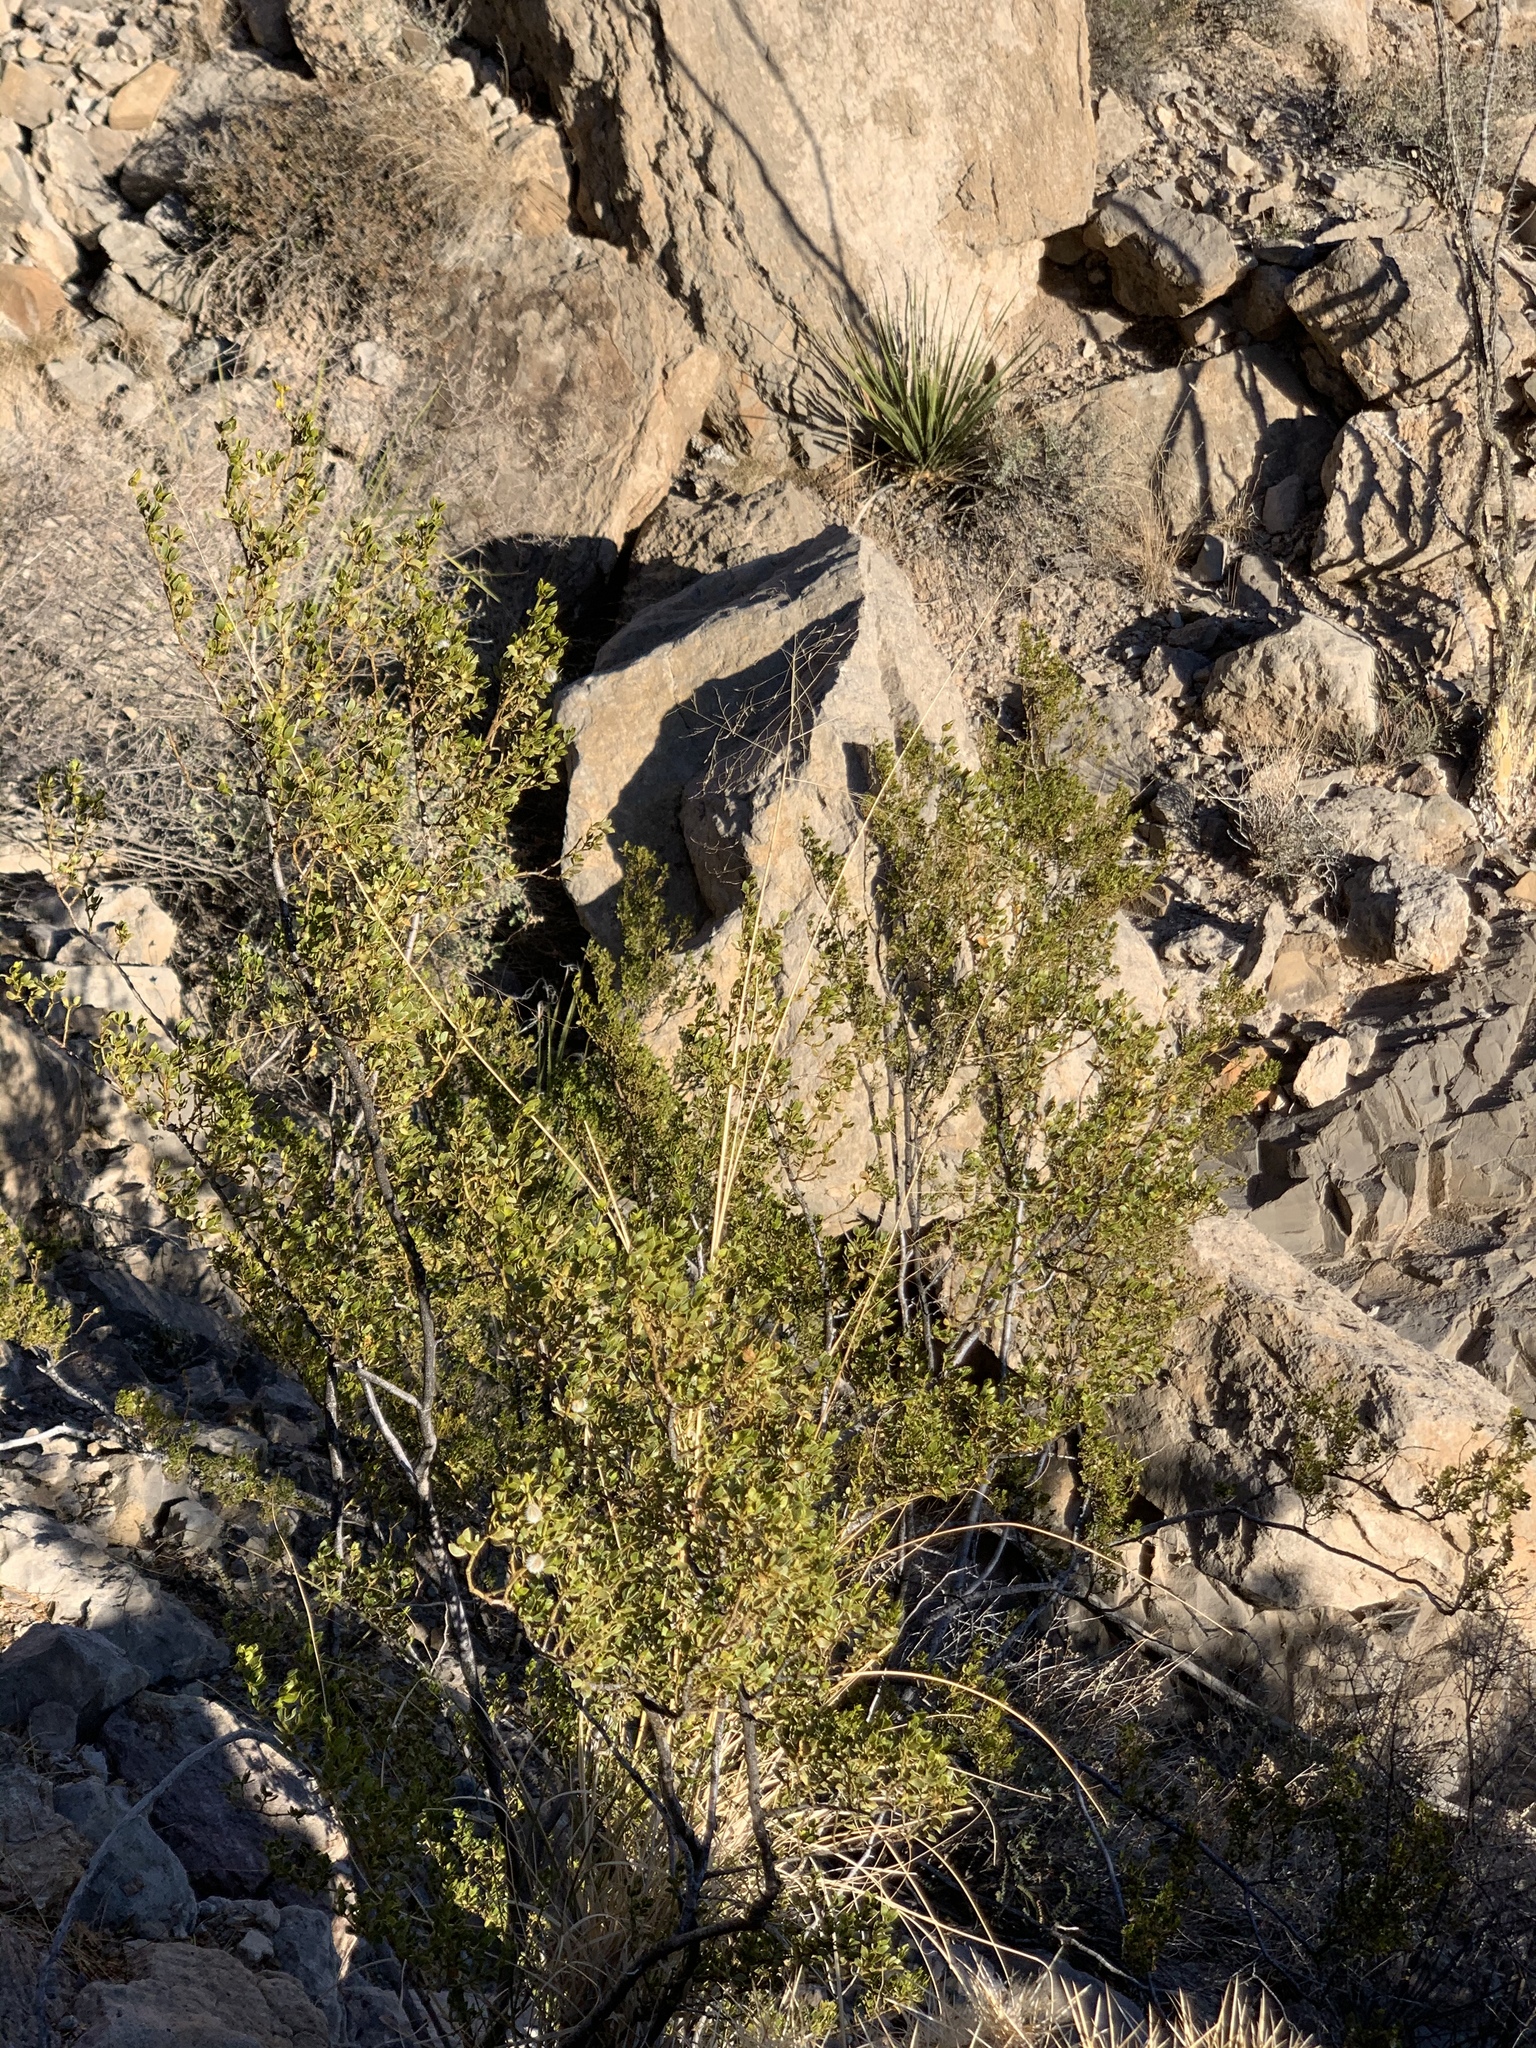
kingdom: Plantae
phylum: Tracheophyta
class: Magnoliopsida
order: Zygophyllales
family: Zygophyllaceae
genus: Larrea
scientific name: Larrea tridentata
